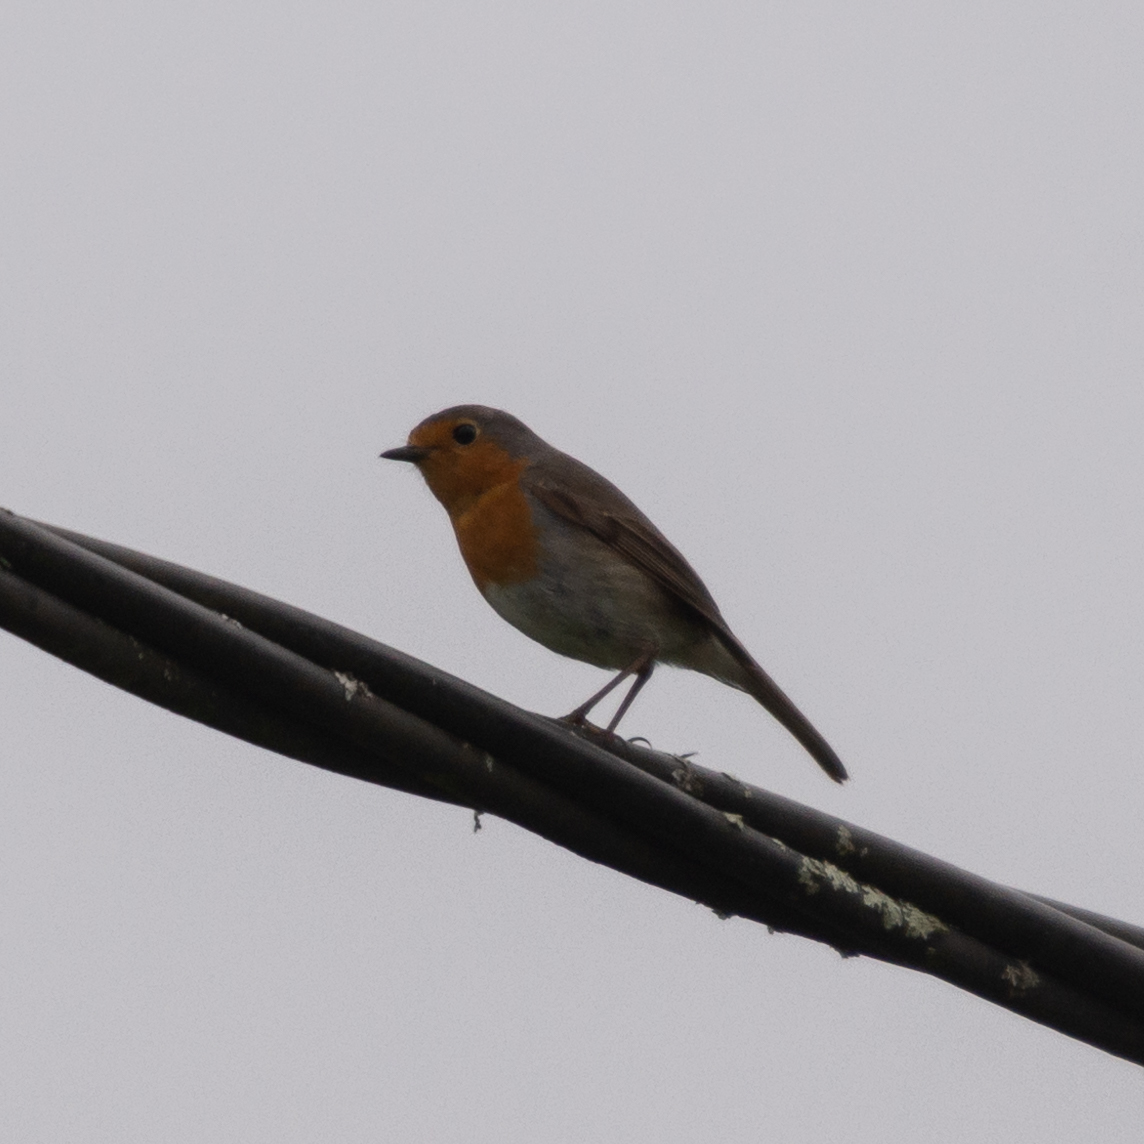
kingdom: Animalia
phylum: Chordata
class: Aves
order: Passeriformes
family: Muscicapidae
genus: Erithacus
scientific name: Erithacus rubecula
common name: European robin
